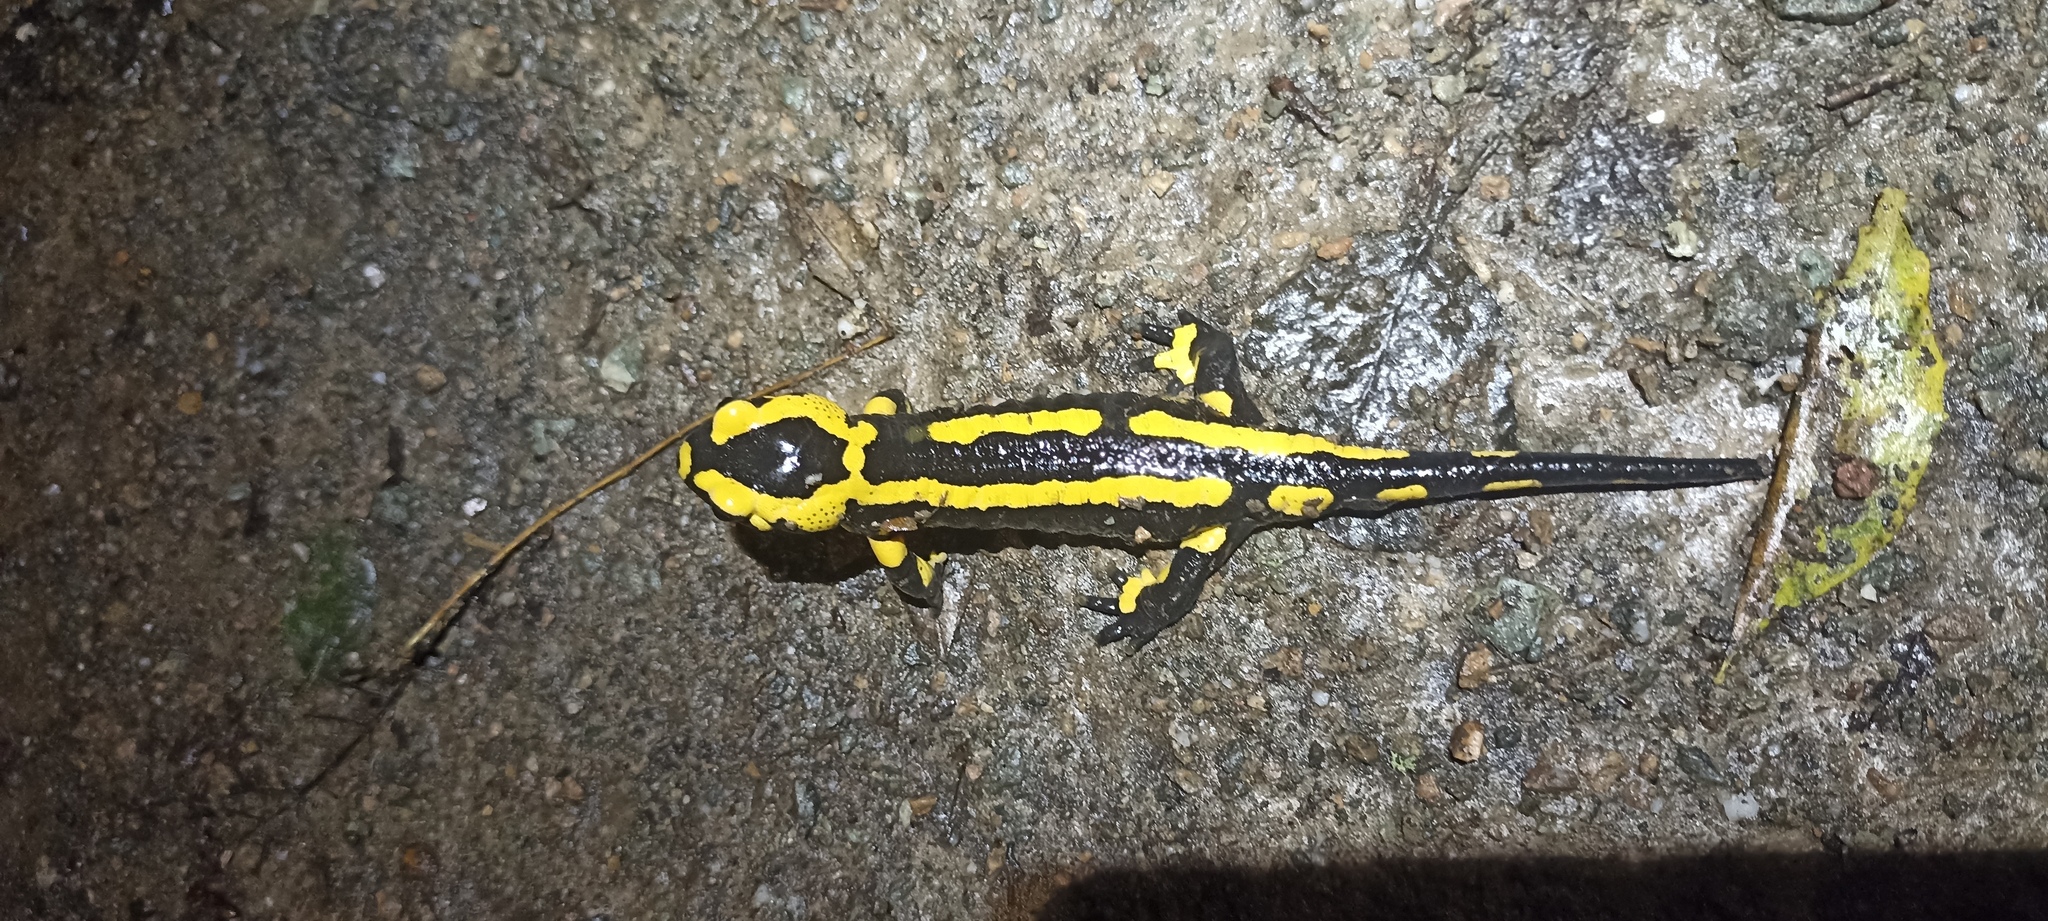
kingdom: Animalia
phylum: Chordata
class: Amphibia
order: Caudata
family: Salamandridae
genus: Salamandra
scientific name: Salamandra salamandra
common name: Fire salamander
